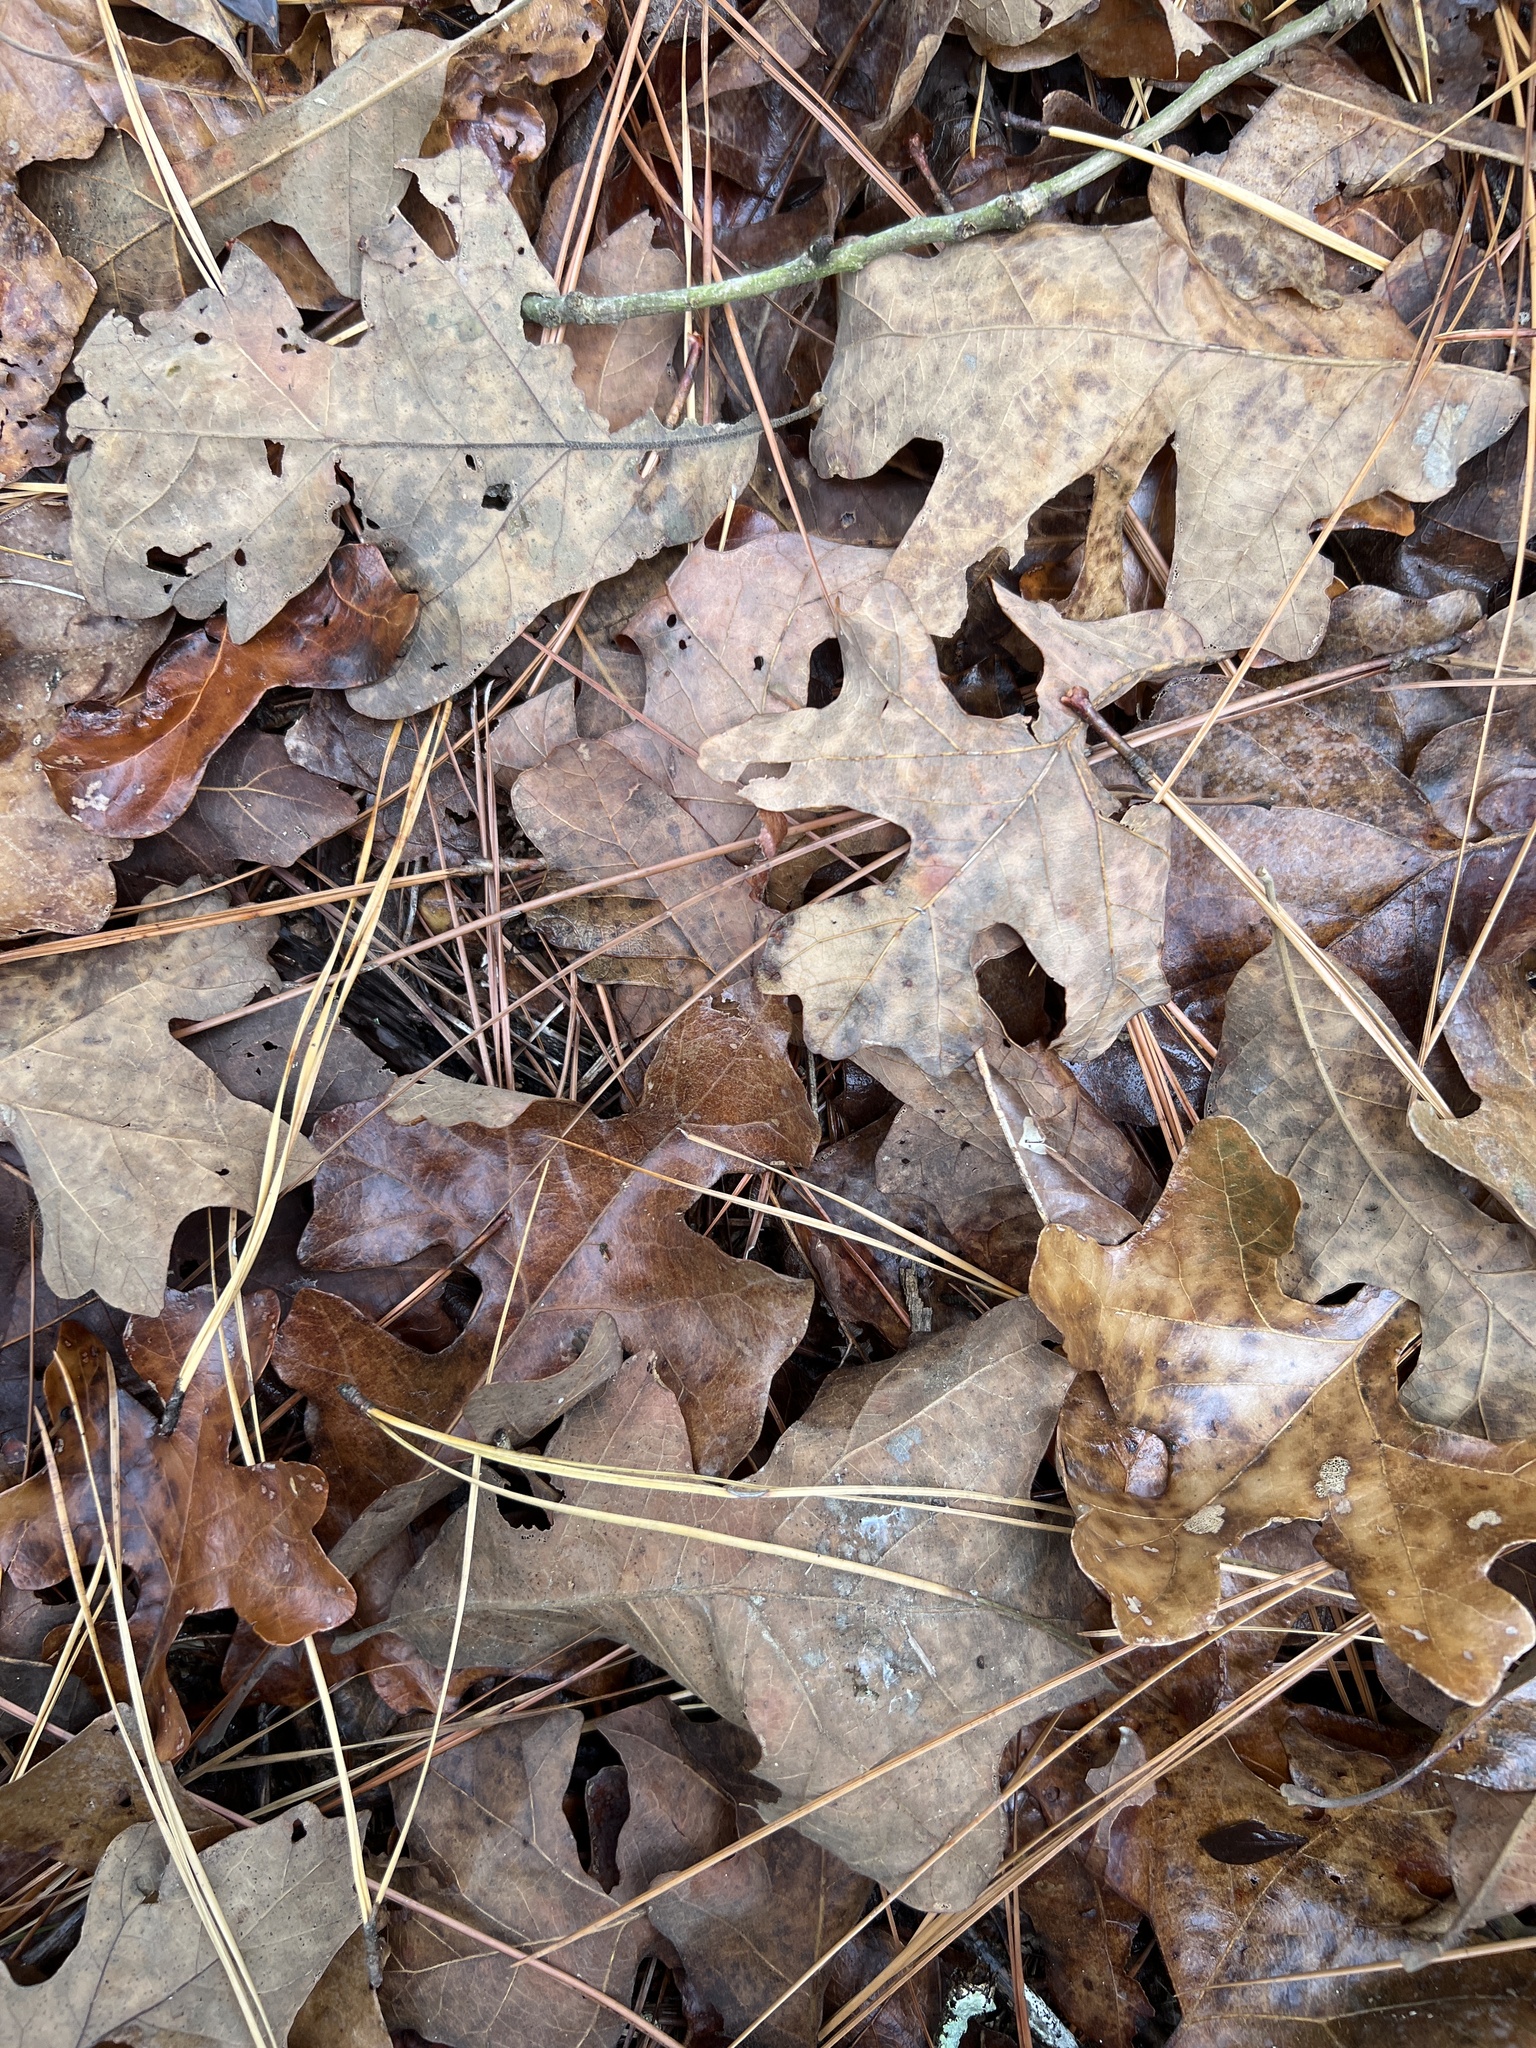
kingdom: Plantae
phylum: Tracheophyta
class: Magnoliopsida
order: Fagales
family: Fagaceae
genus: Quercus
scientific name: Quercus stellata
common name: Post oak
